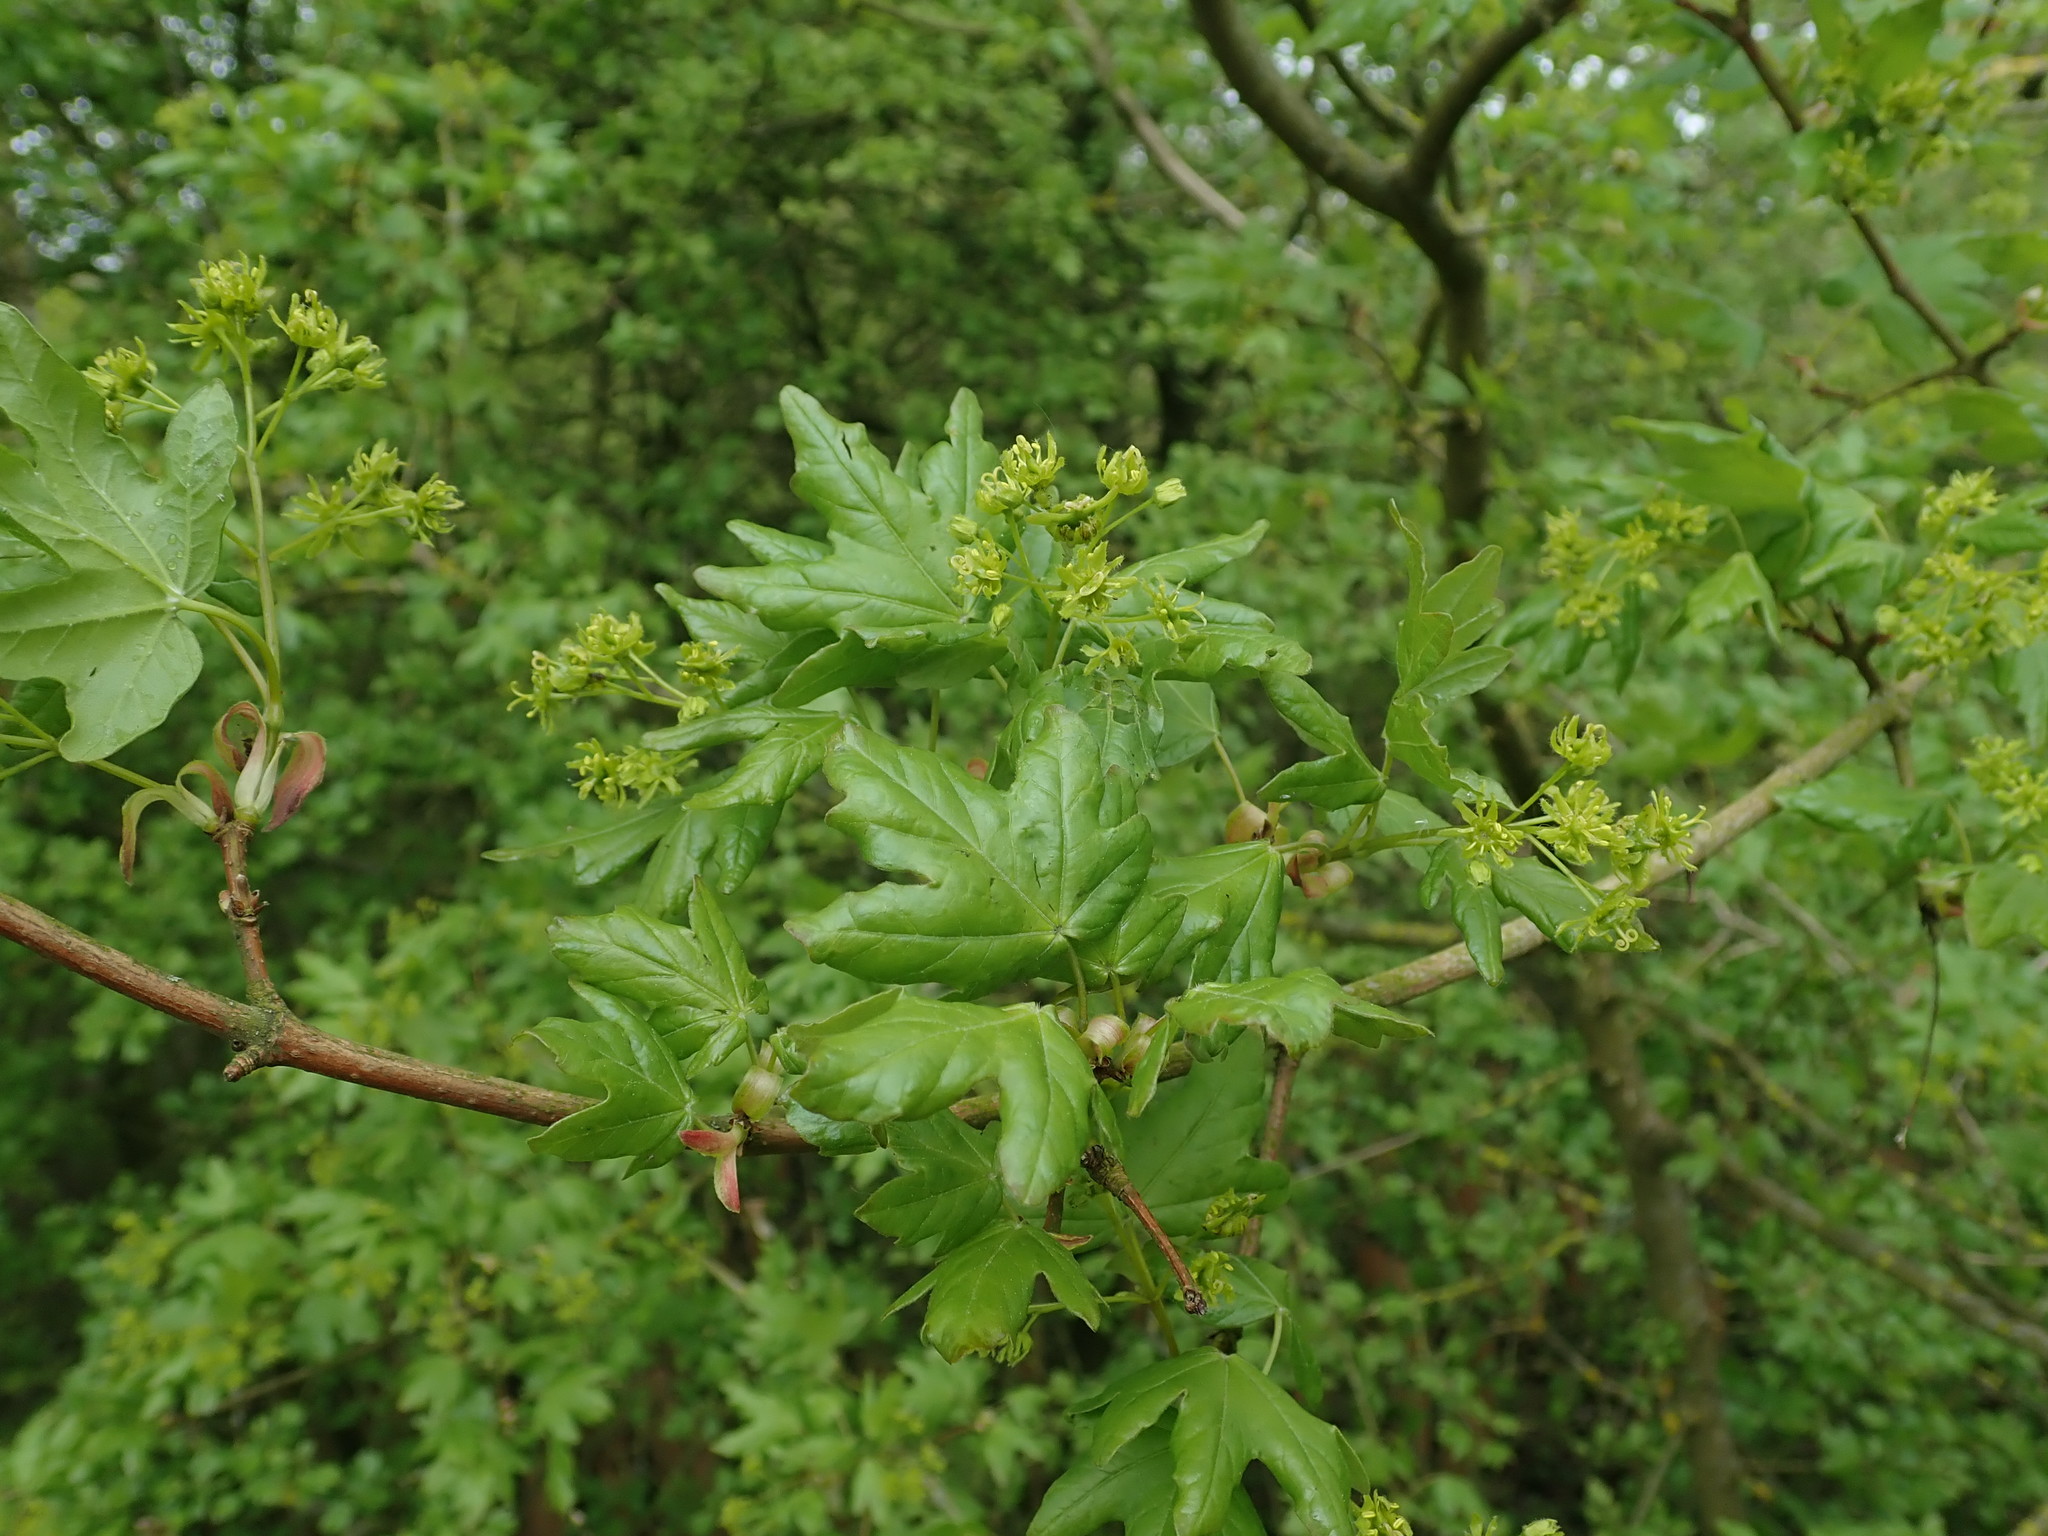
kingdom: Plantae
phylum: Tracheophyta
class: Magnoliopsida
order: Sapindales
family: Sapindaceae
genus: Acer
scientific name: Acer campestre
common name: Field maple
